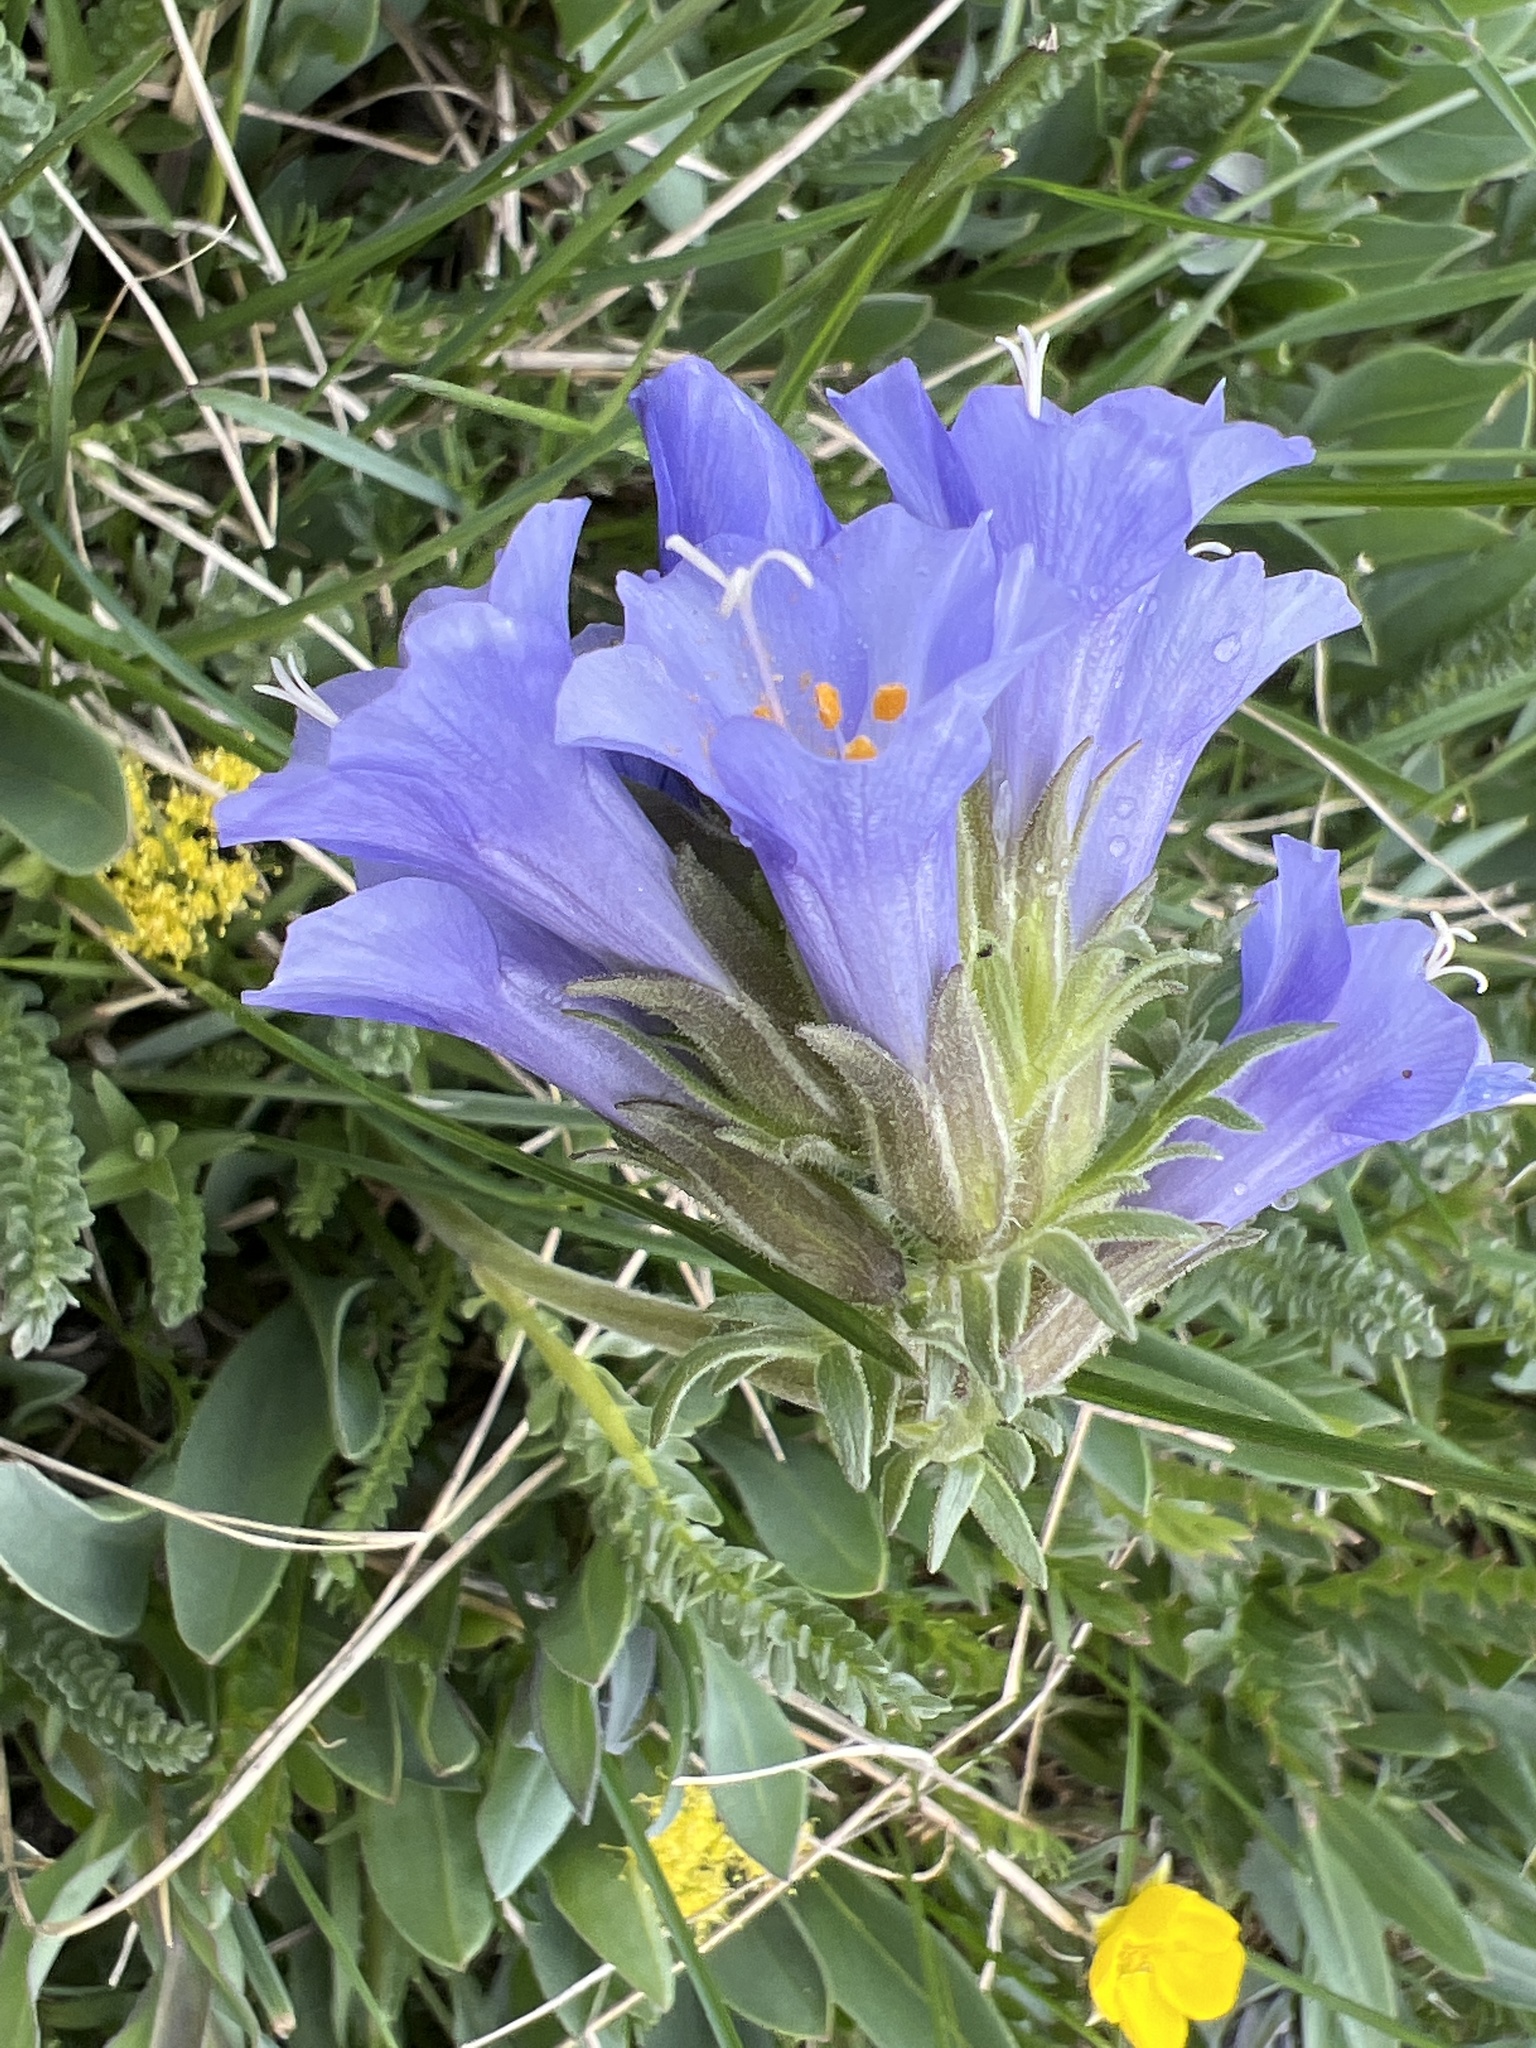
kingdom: Plantae
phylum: Tracheophyta
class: Magnoliopsida
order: Ericales
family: Polemoniaceae
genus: Polemonium
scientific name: Polemonium viscosum
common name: Skunk jacob's-ladder
